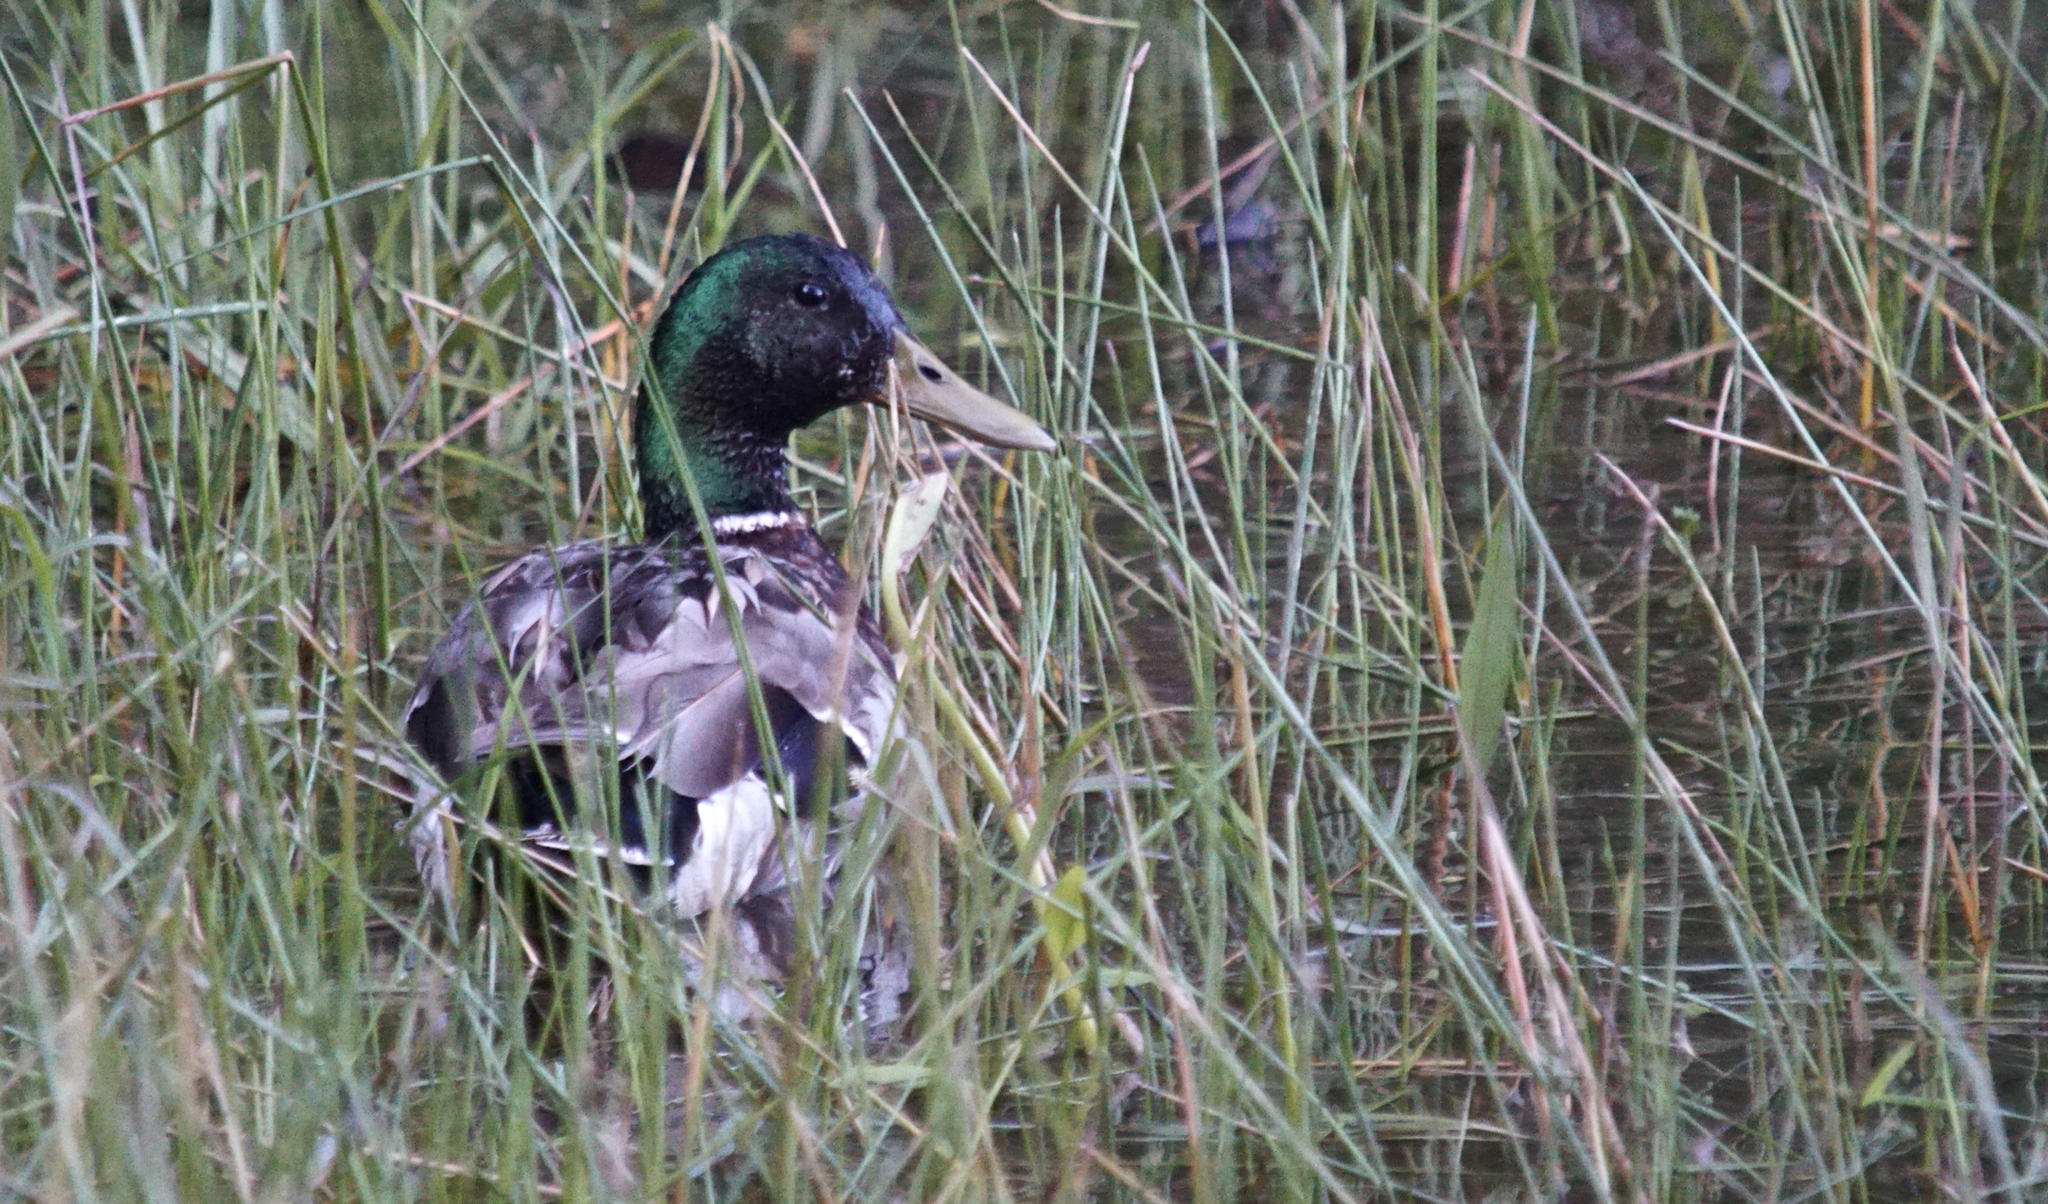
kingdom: Animalia
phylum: Chordata
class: Aves
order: Anseriformes
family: Anatidae
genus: Anas
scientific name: Anas platyrhynchos
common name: Mallard
